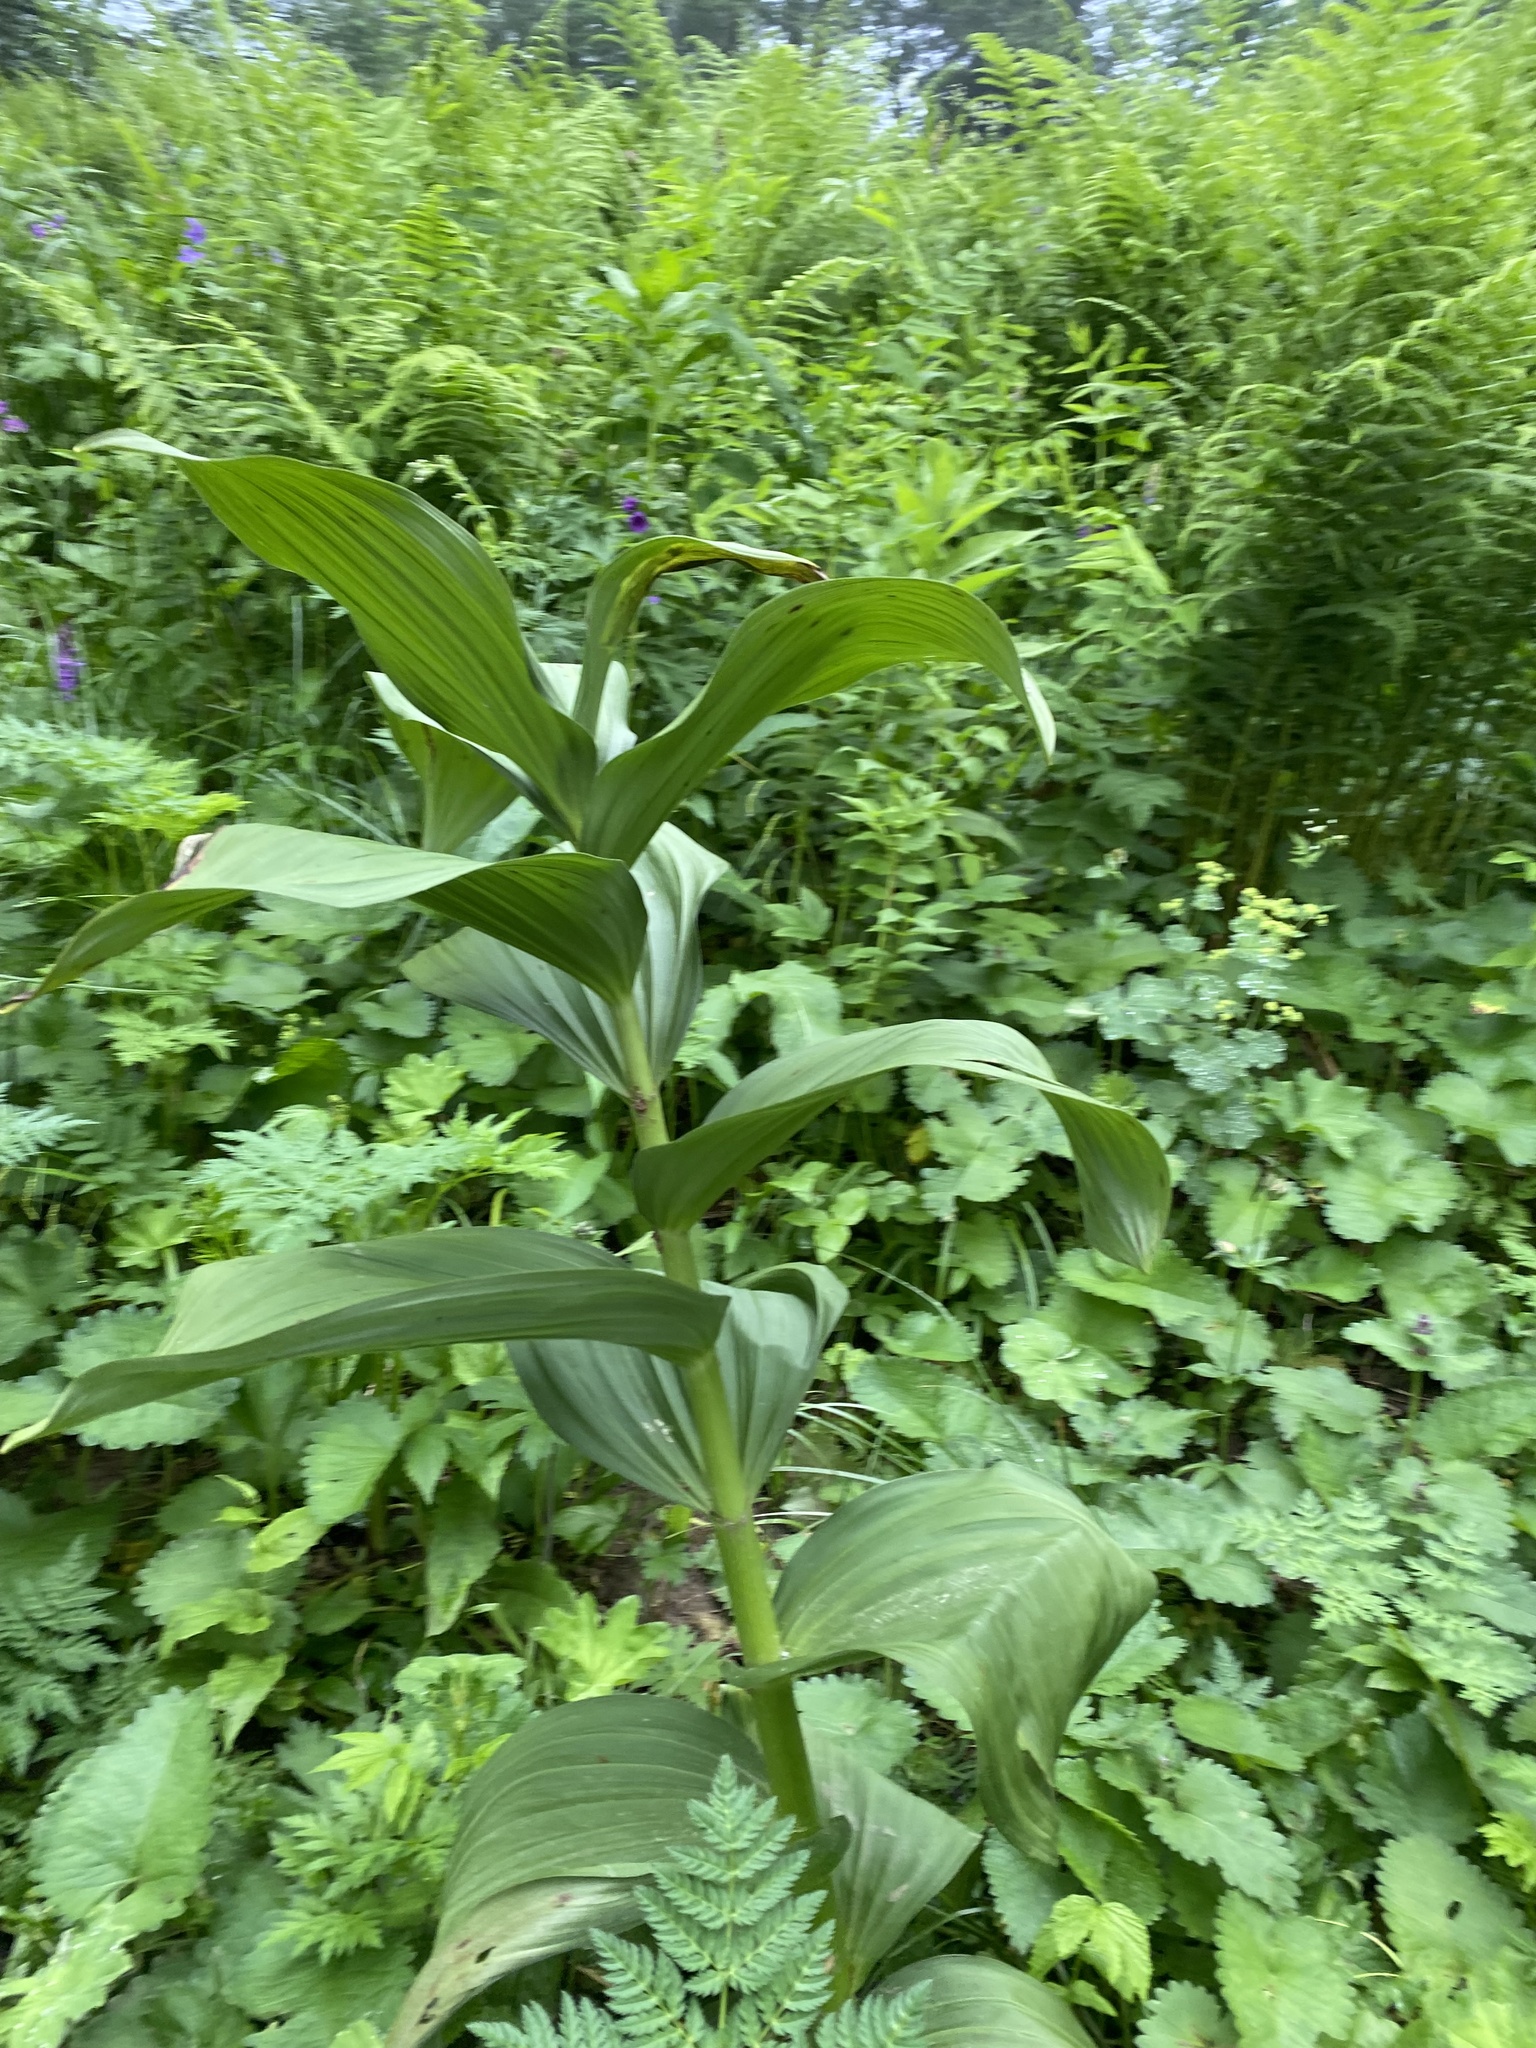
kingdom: Plantae
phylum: Tracheophyta
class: Liliopsida
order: Liliales
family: Melanthiaceae
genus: Veratrum
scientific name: Veratrum lobelianum
